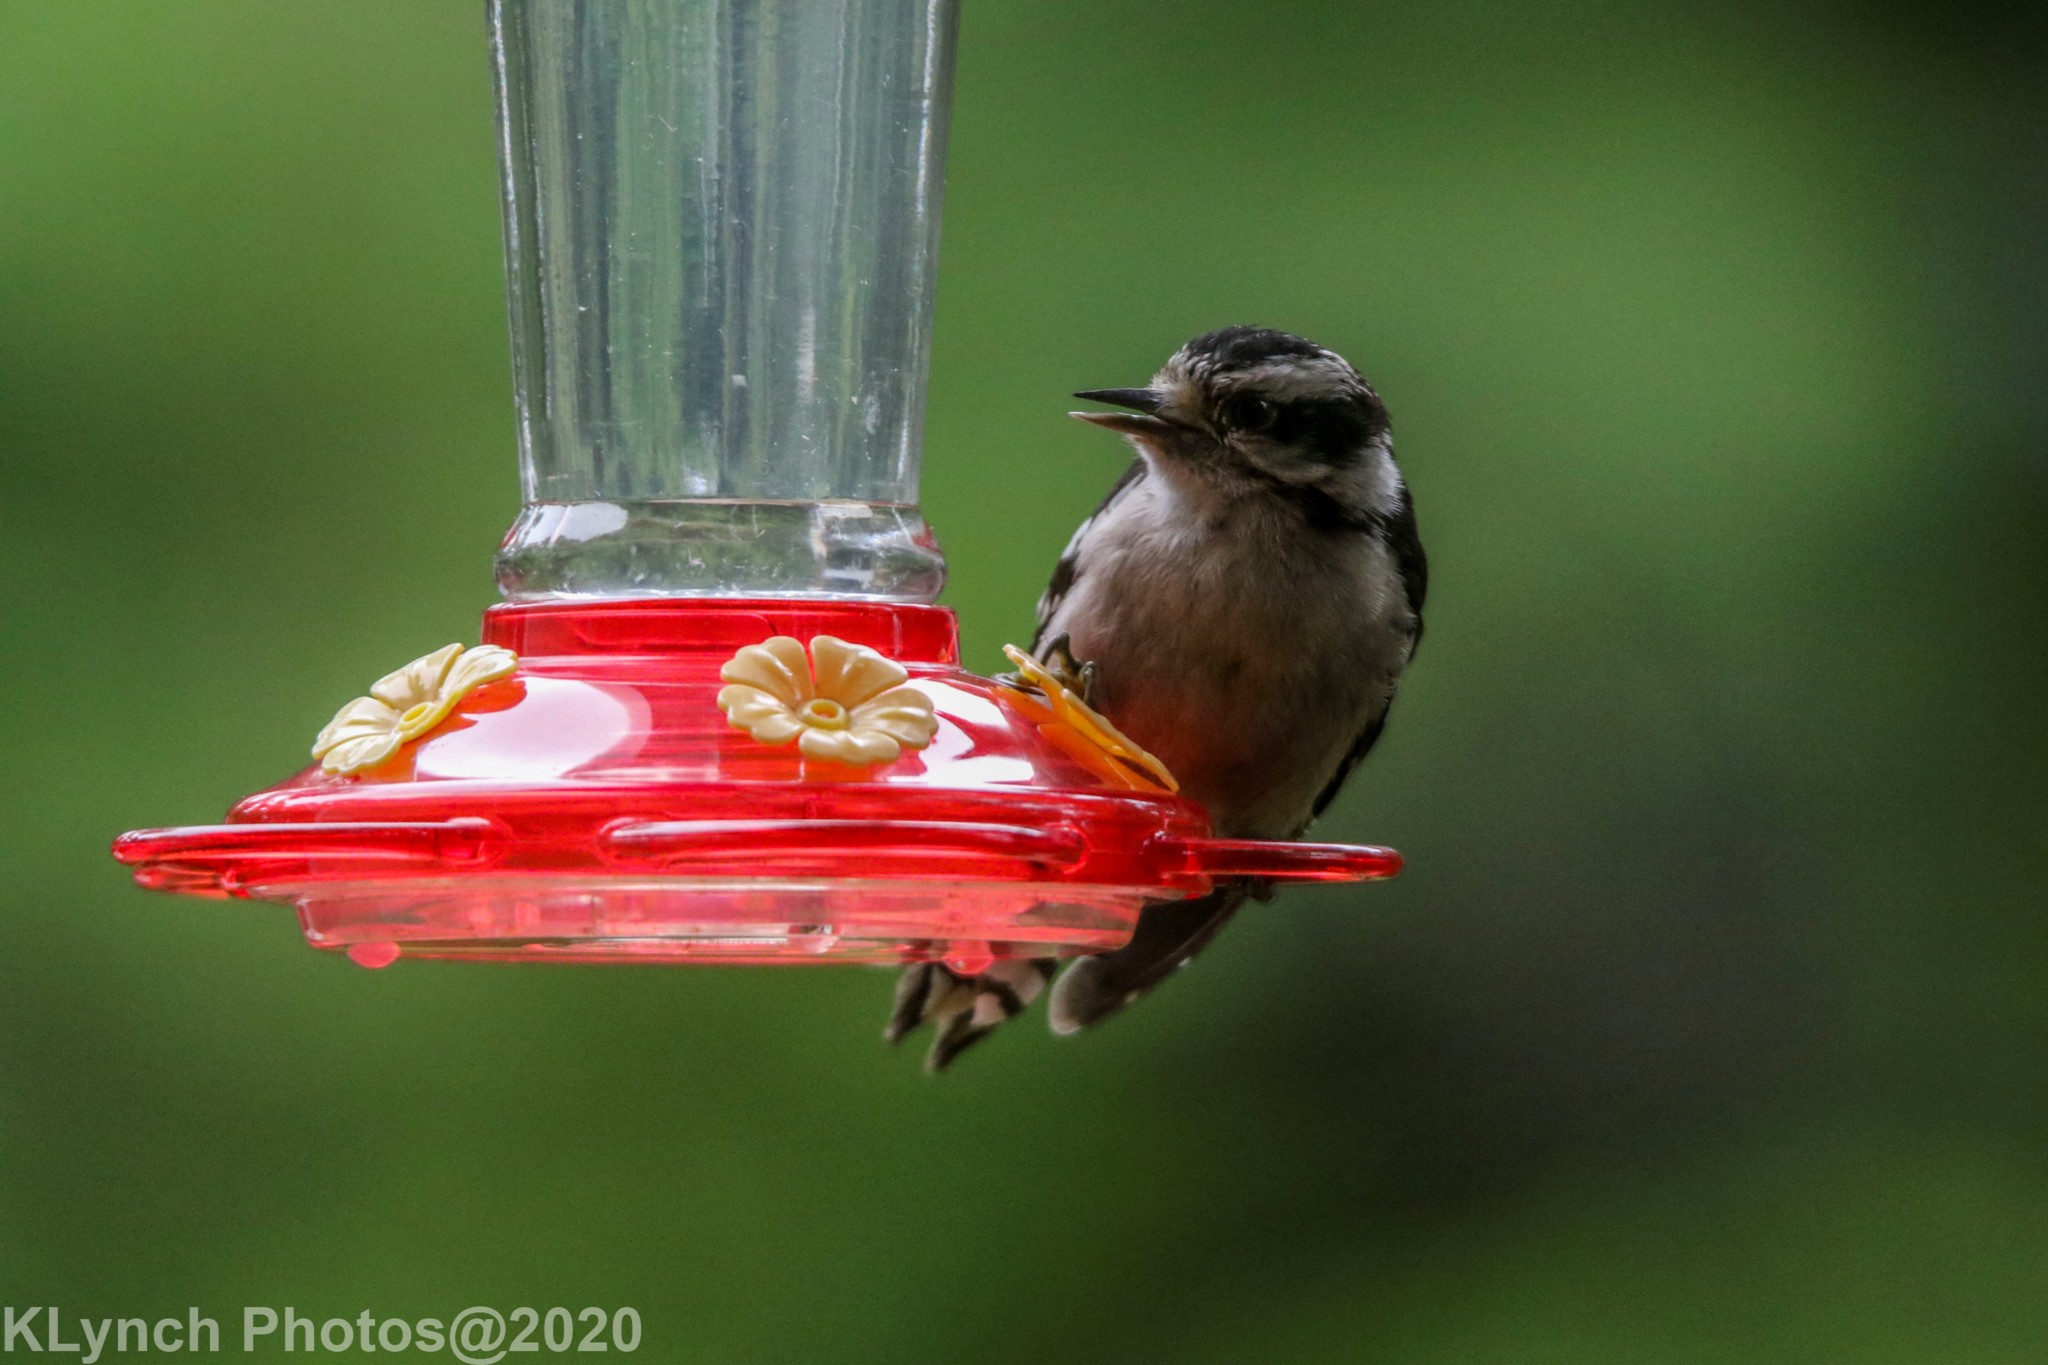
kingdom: Animalia
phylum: Chordata
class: Aves
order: Piciformes
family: Picidae
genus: Dryobates
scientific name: Dryobates pubescens
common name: Downy woodpecker
